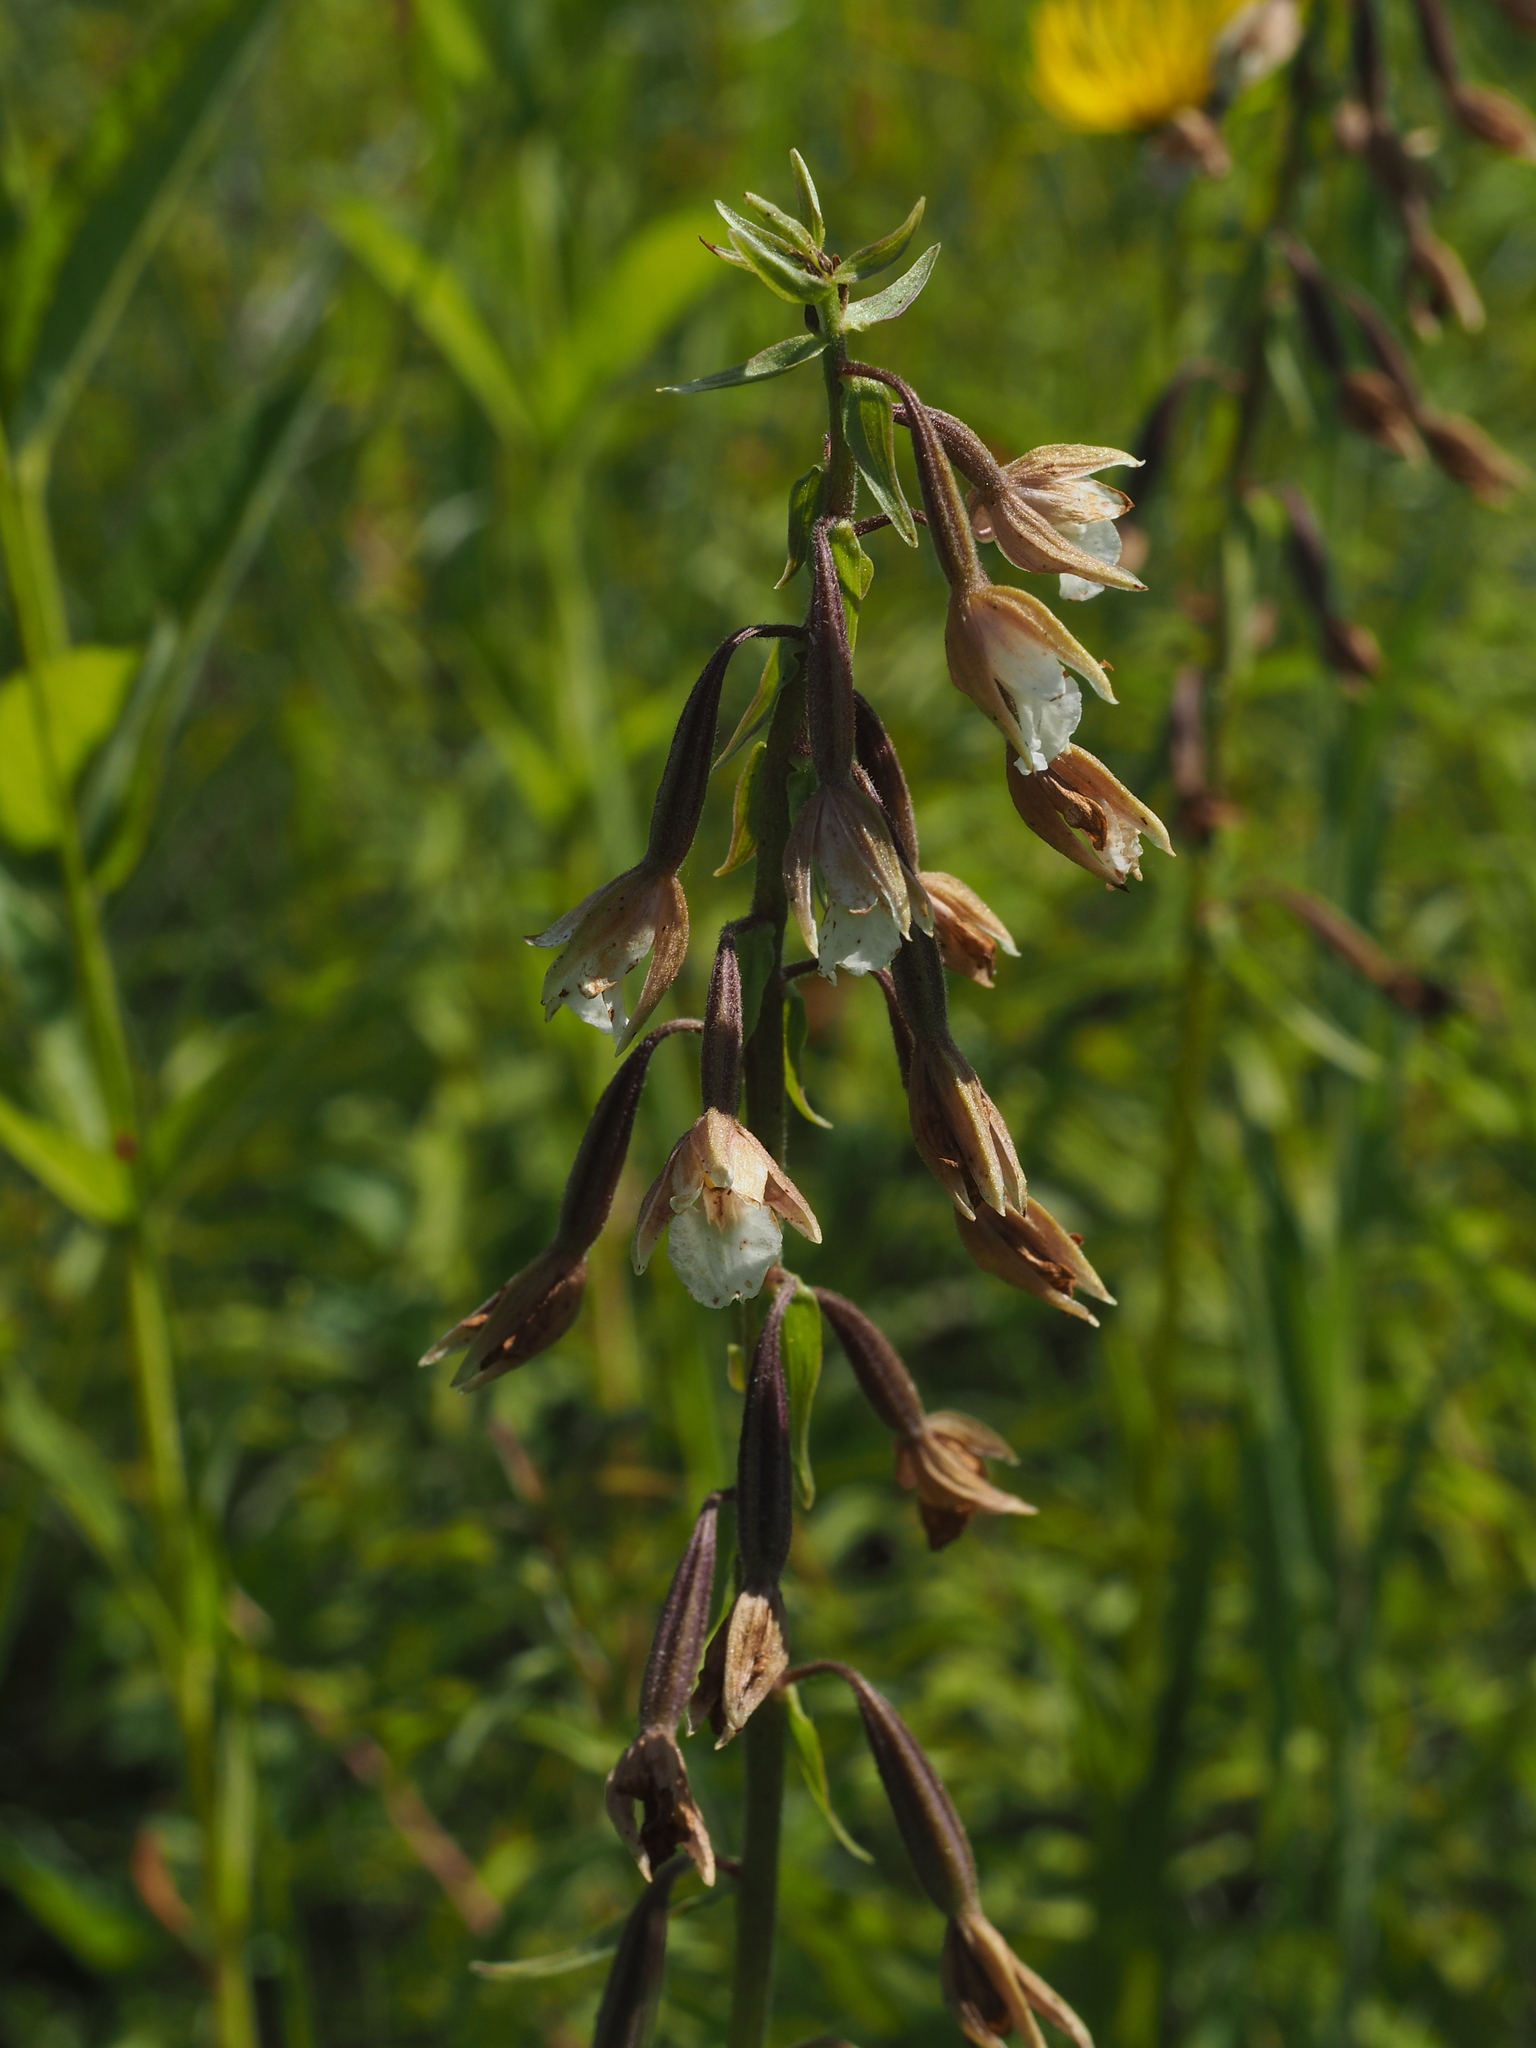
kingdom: Plantae
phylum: Tracheophyta
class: Liliopsida
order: Asparagales
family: Orchidaceae
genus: Epipactis
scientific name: Epipactis palustris
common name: Marsh helleborine
